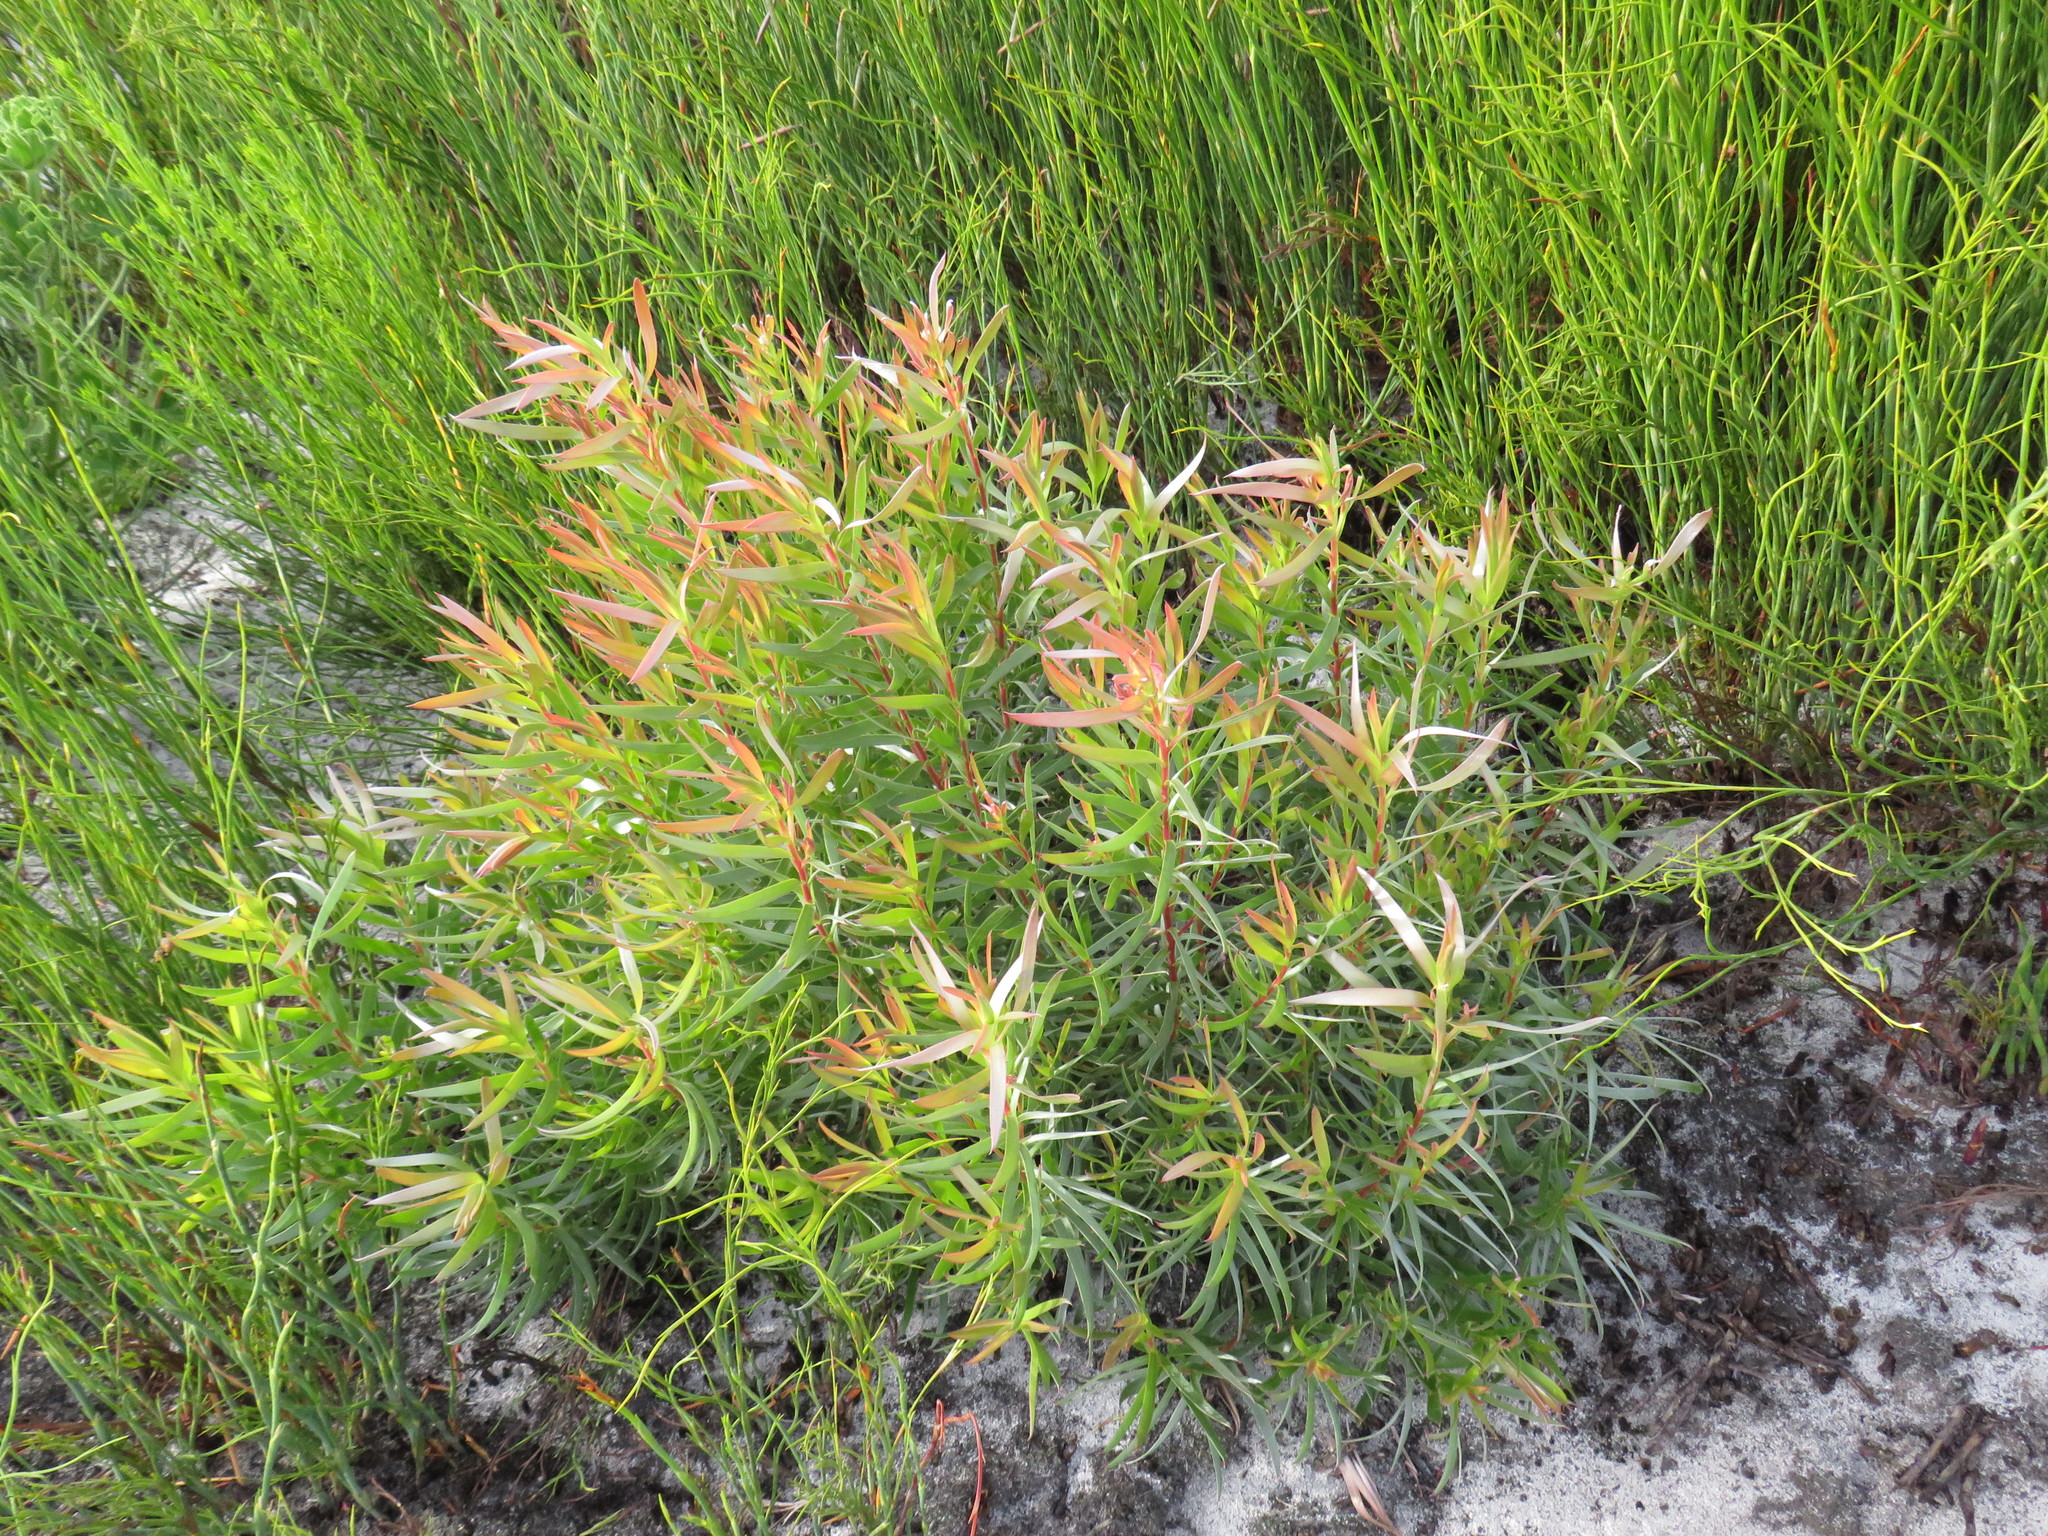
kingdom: Plantae
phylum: Tracheophyta
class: Magnoliopsida
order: Proteales
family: Proteaceae
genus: Leucadendron
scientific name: Leucadendron xanthoconus
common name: Sickle-leaf conebush
